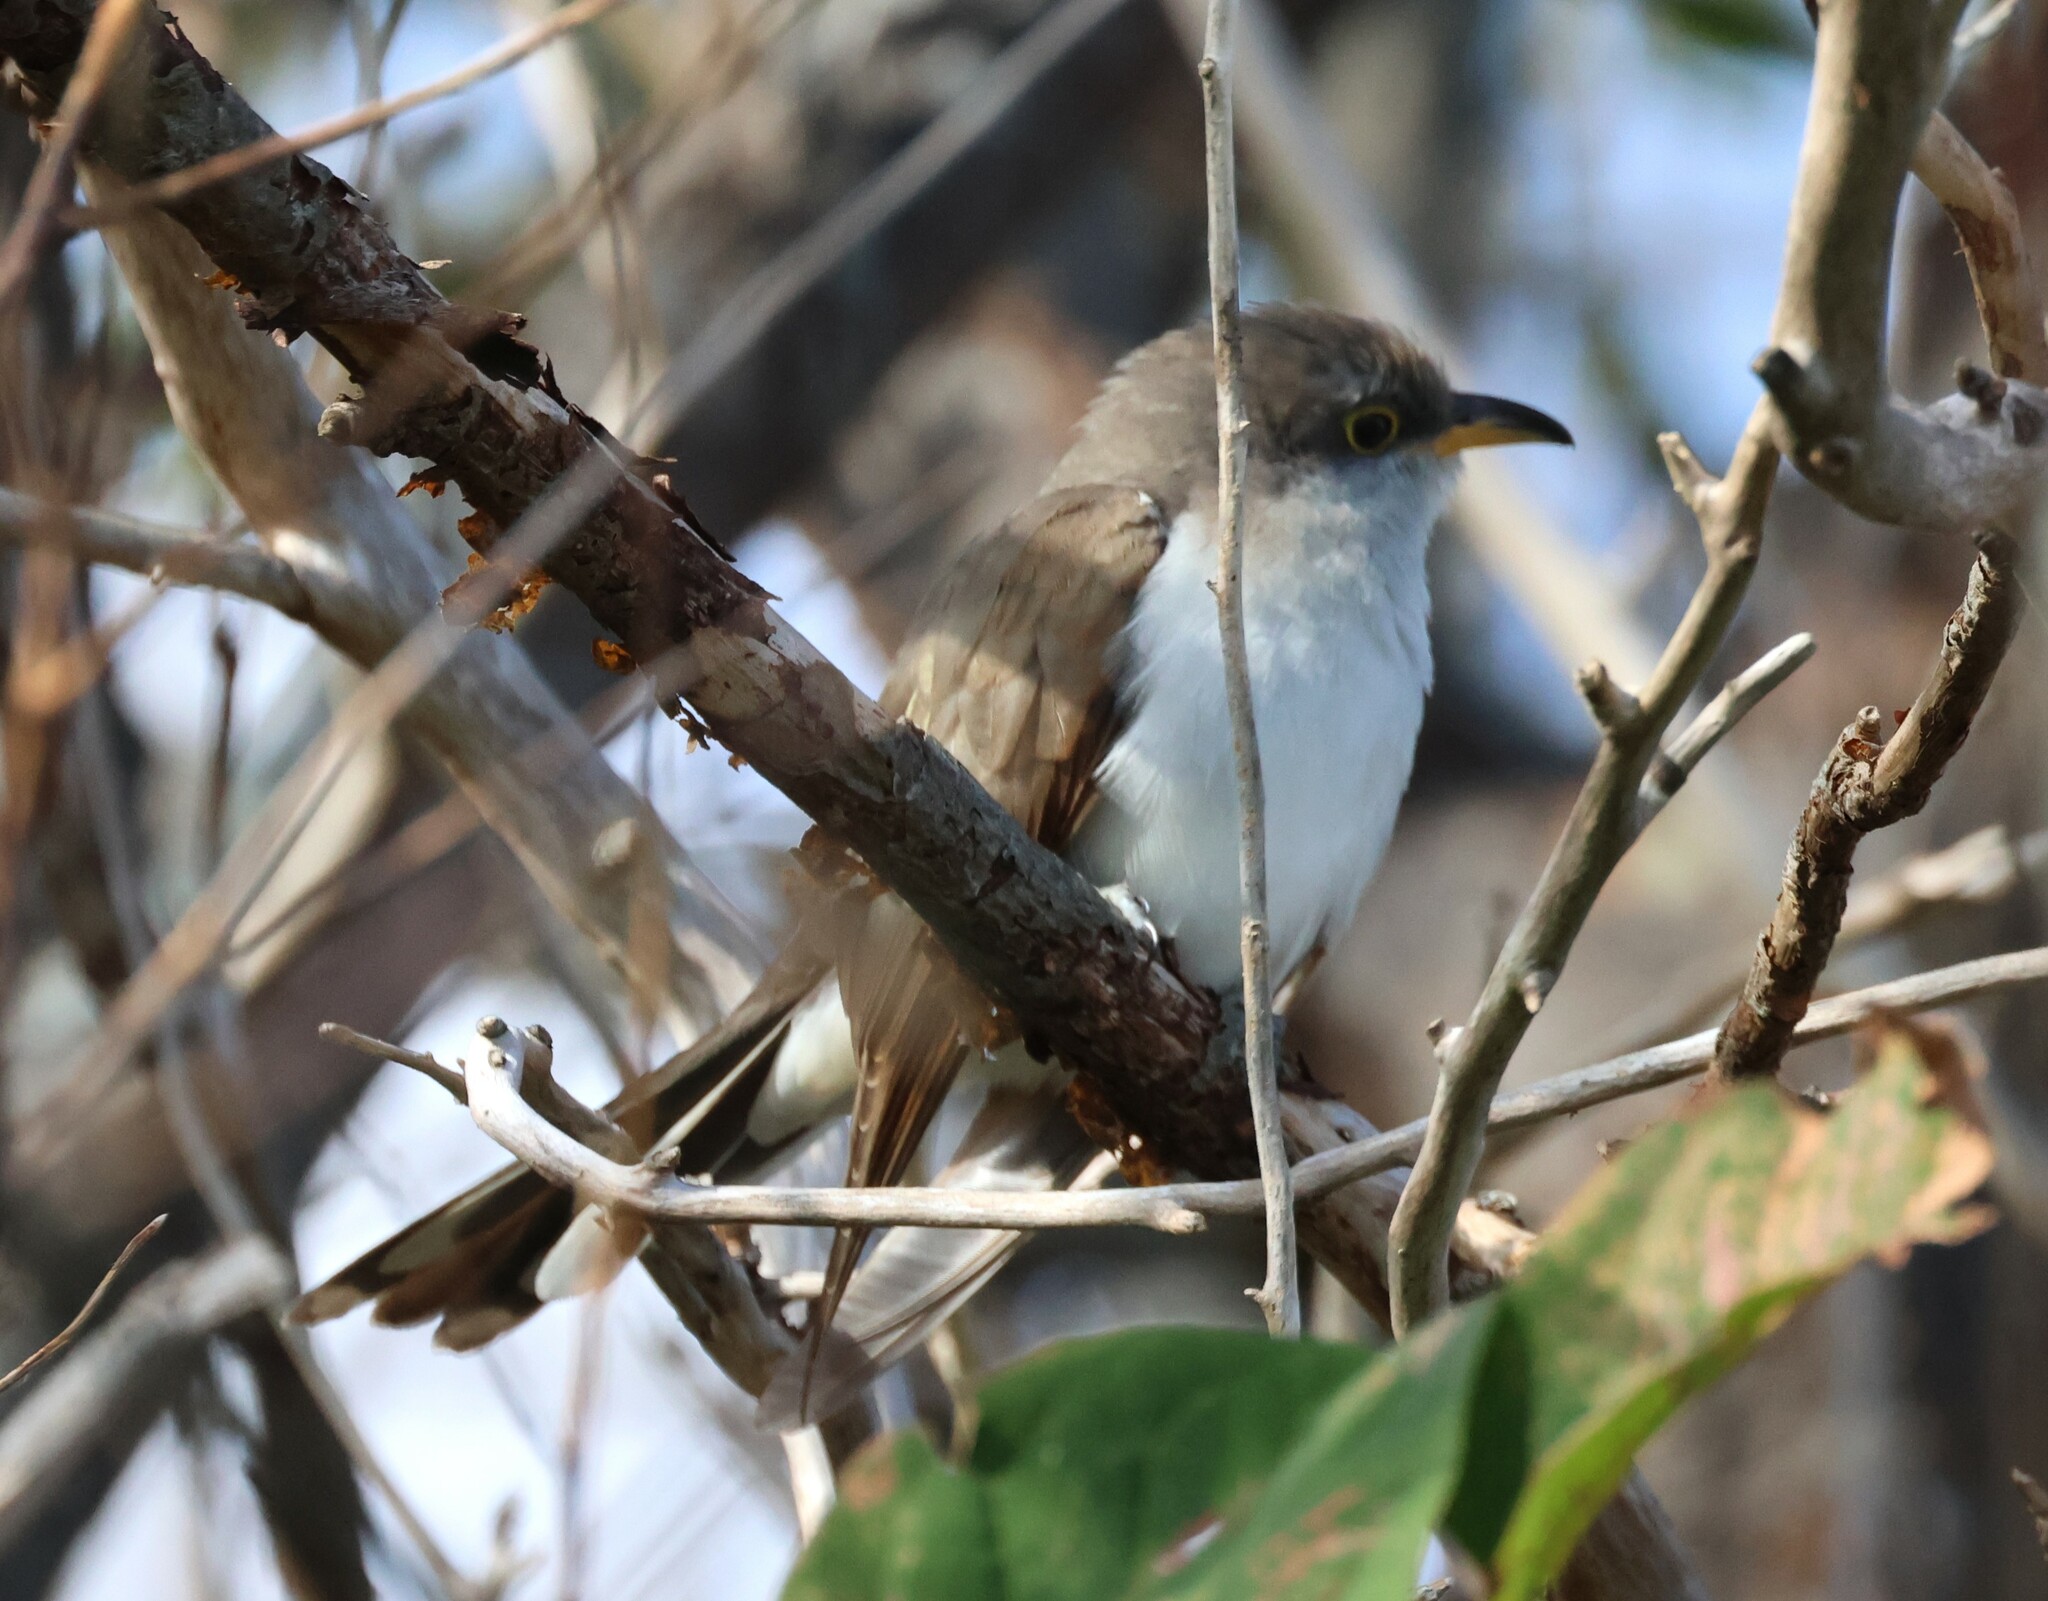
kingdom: Animalia
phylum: Chordata
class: Aves
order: Cuculiformes
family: Cuculidae
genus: Coccyzus
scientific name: Coccyzus americanus
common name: Yellow-billed cuckoo
